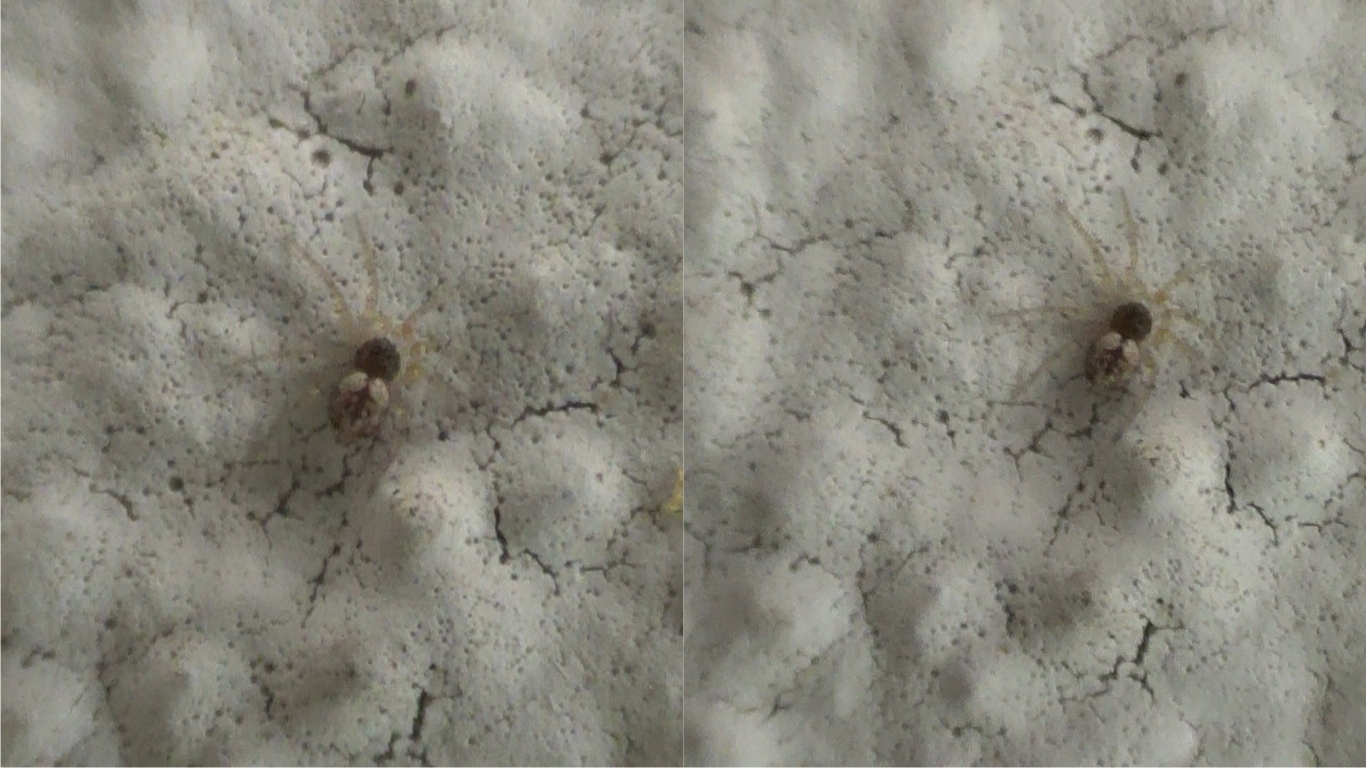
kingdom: Animalia
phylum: Arthropoda
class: Arachnida
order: Araneae
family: Oecobiidae
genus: Oecobius
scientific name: Oecobius maculatus
